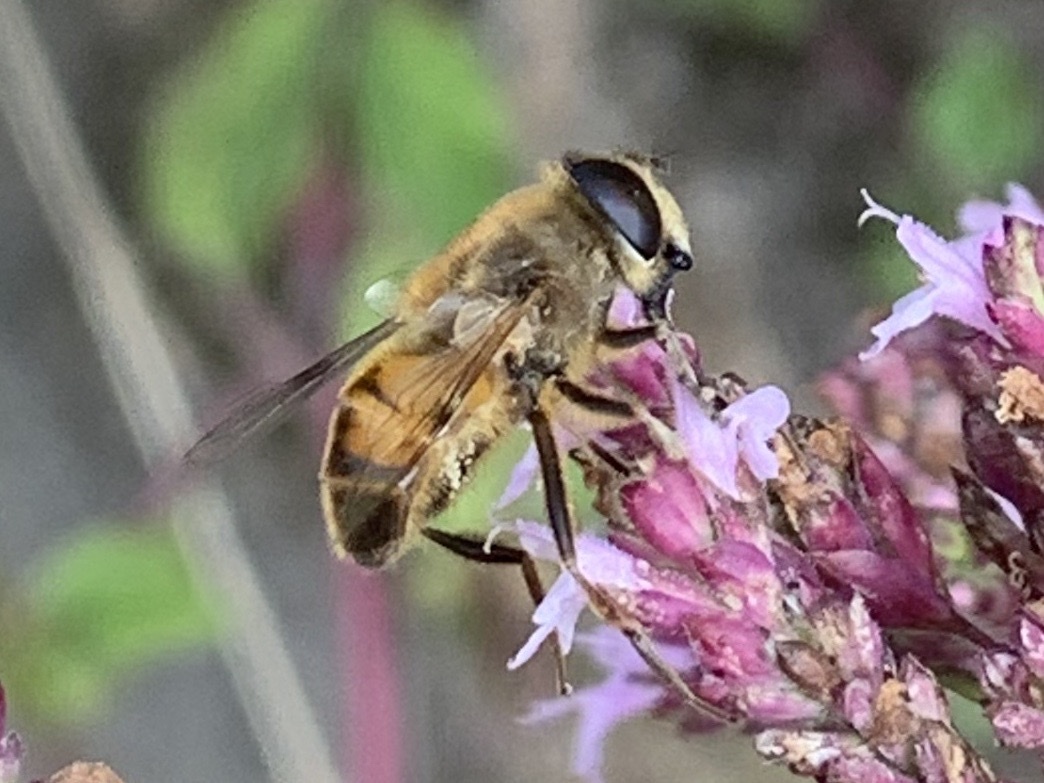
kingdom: Animalia
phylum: Arthropoda
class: Insecta
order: Diptera
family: Syrphidae
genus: Eristalis
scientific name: Eristalis tenax
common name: Drone fly
